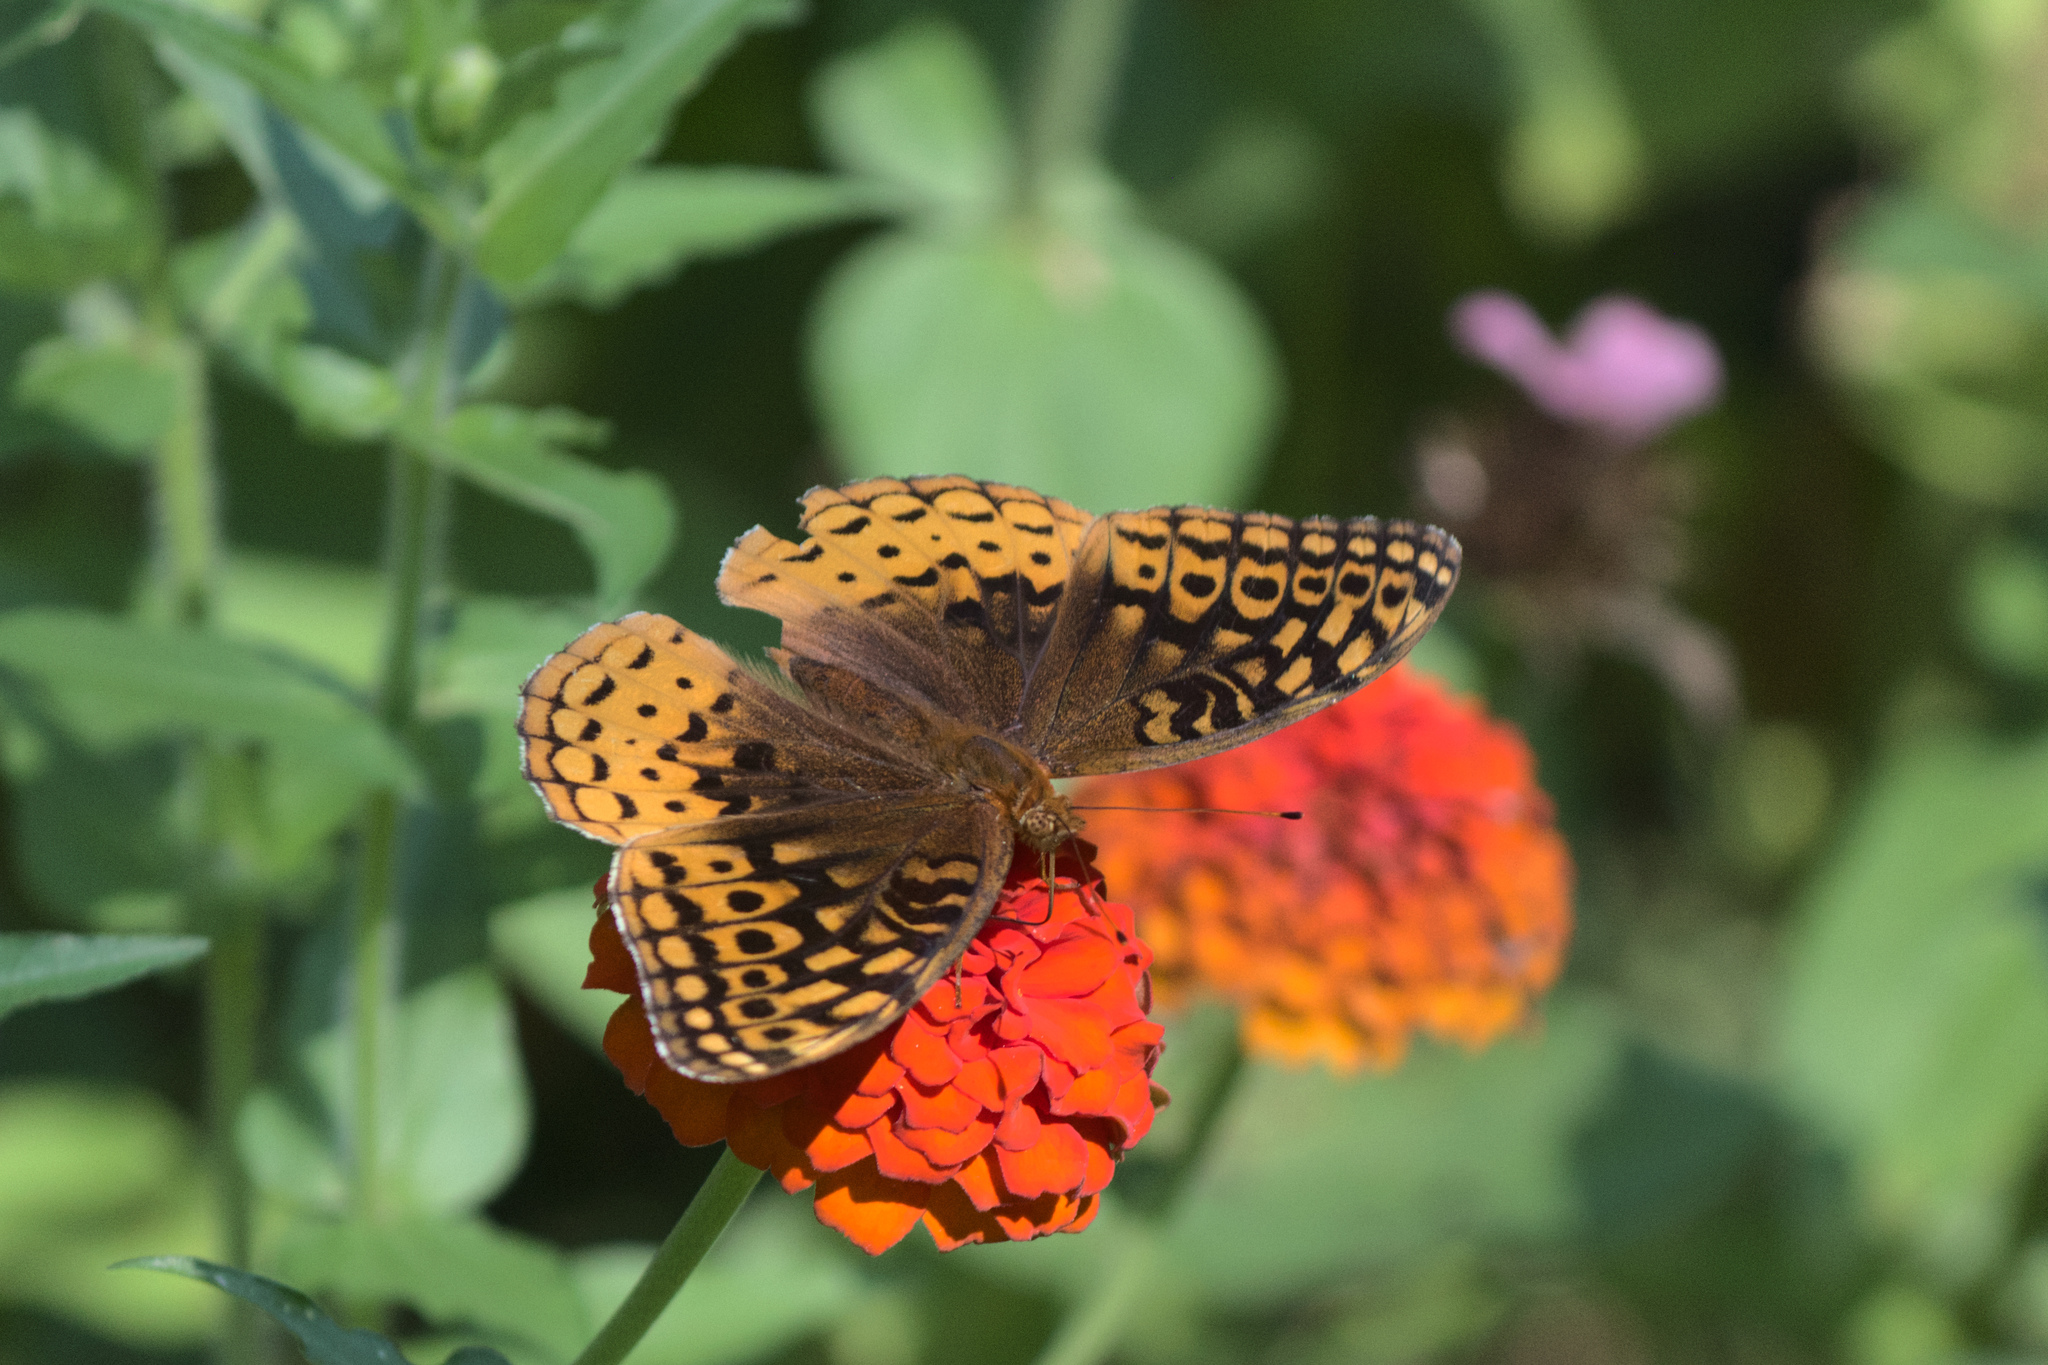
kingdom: Animalia
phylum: Arthropoda
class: Insecta
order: Lepidoptera
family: Nymphalidae
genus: Speyeria
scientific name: Speyeria cybele
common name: Great spangled fritillary
